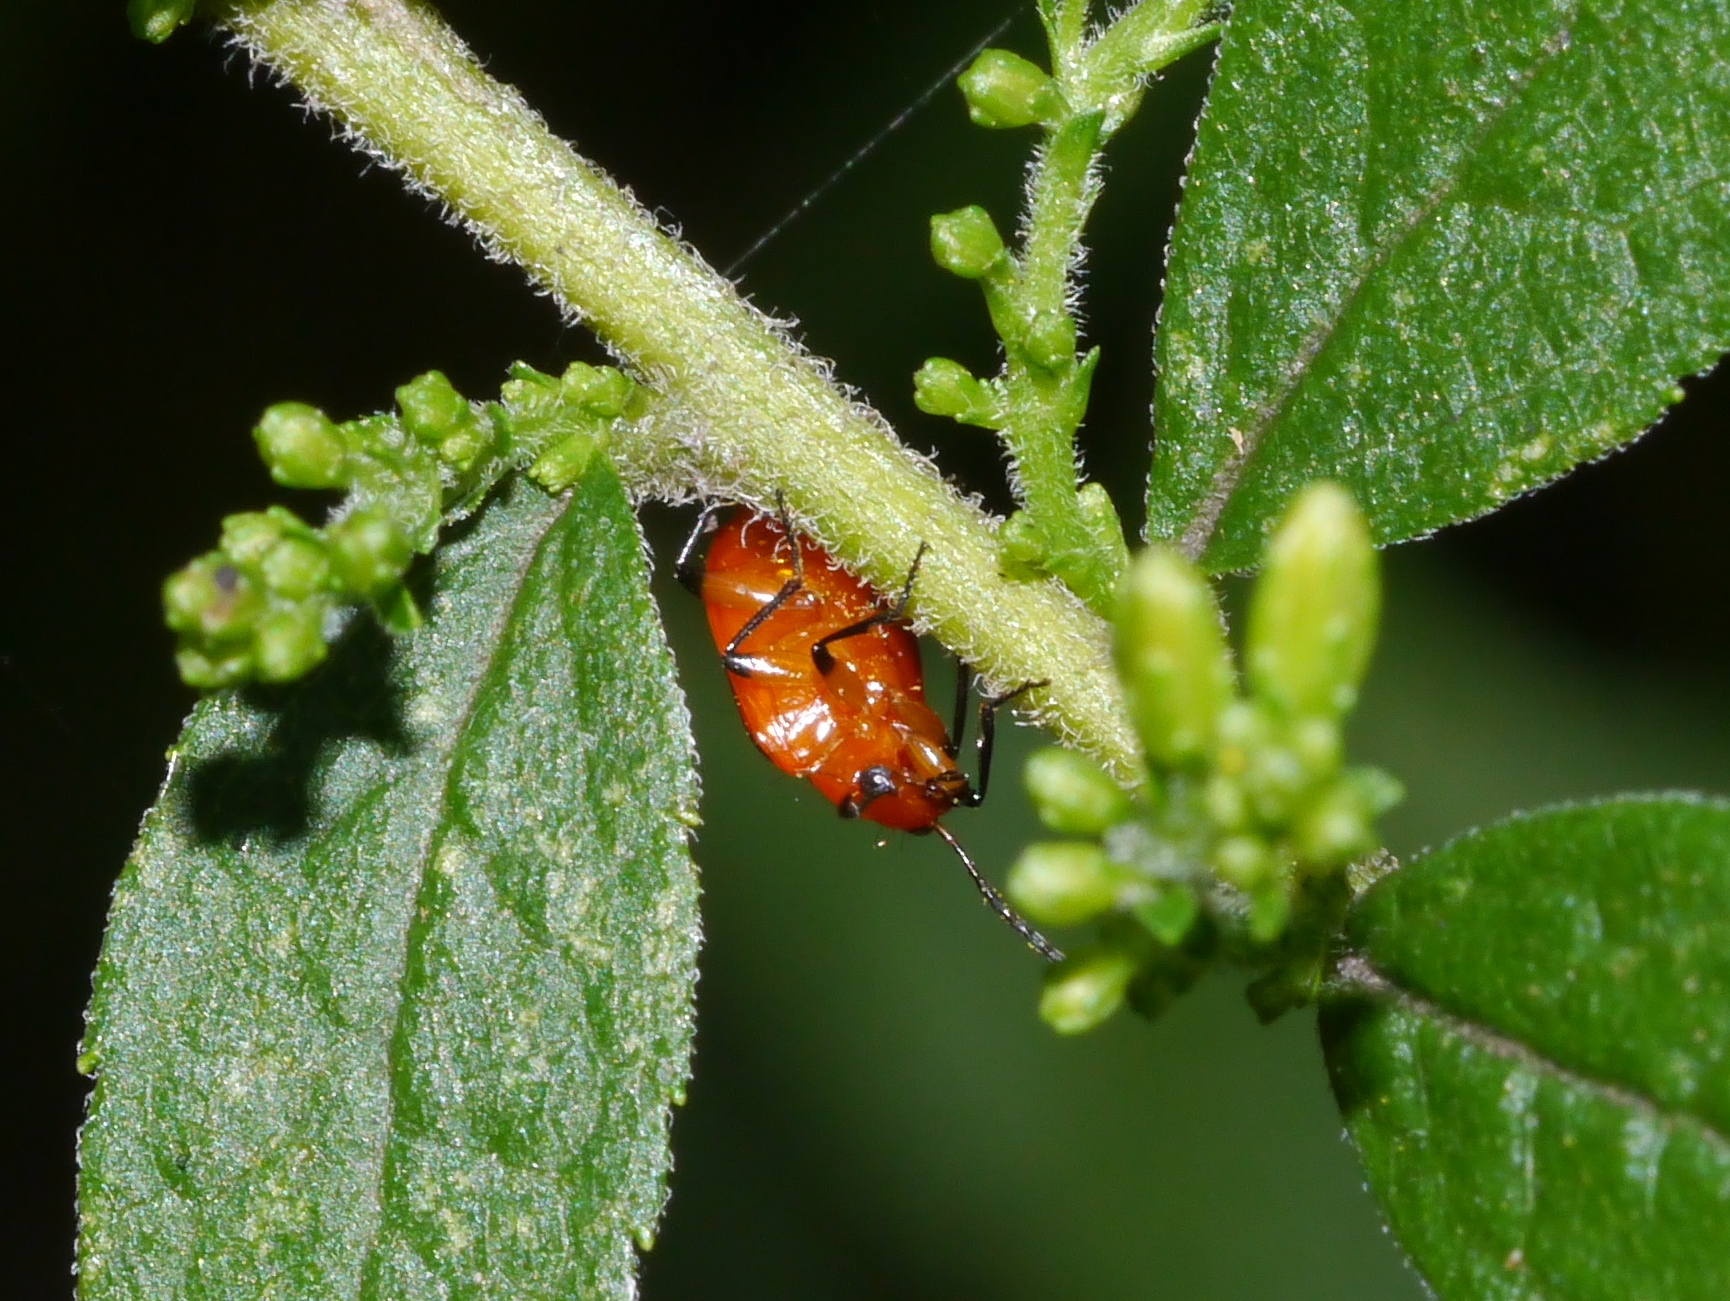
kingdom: Animalia
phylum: Arthropoda
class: Insecta
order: Coleoptera
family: Carabidae
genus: Lebia
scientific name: Lebia vittata
